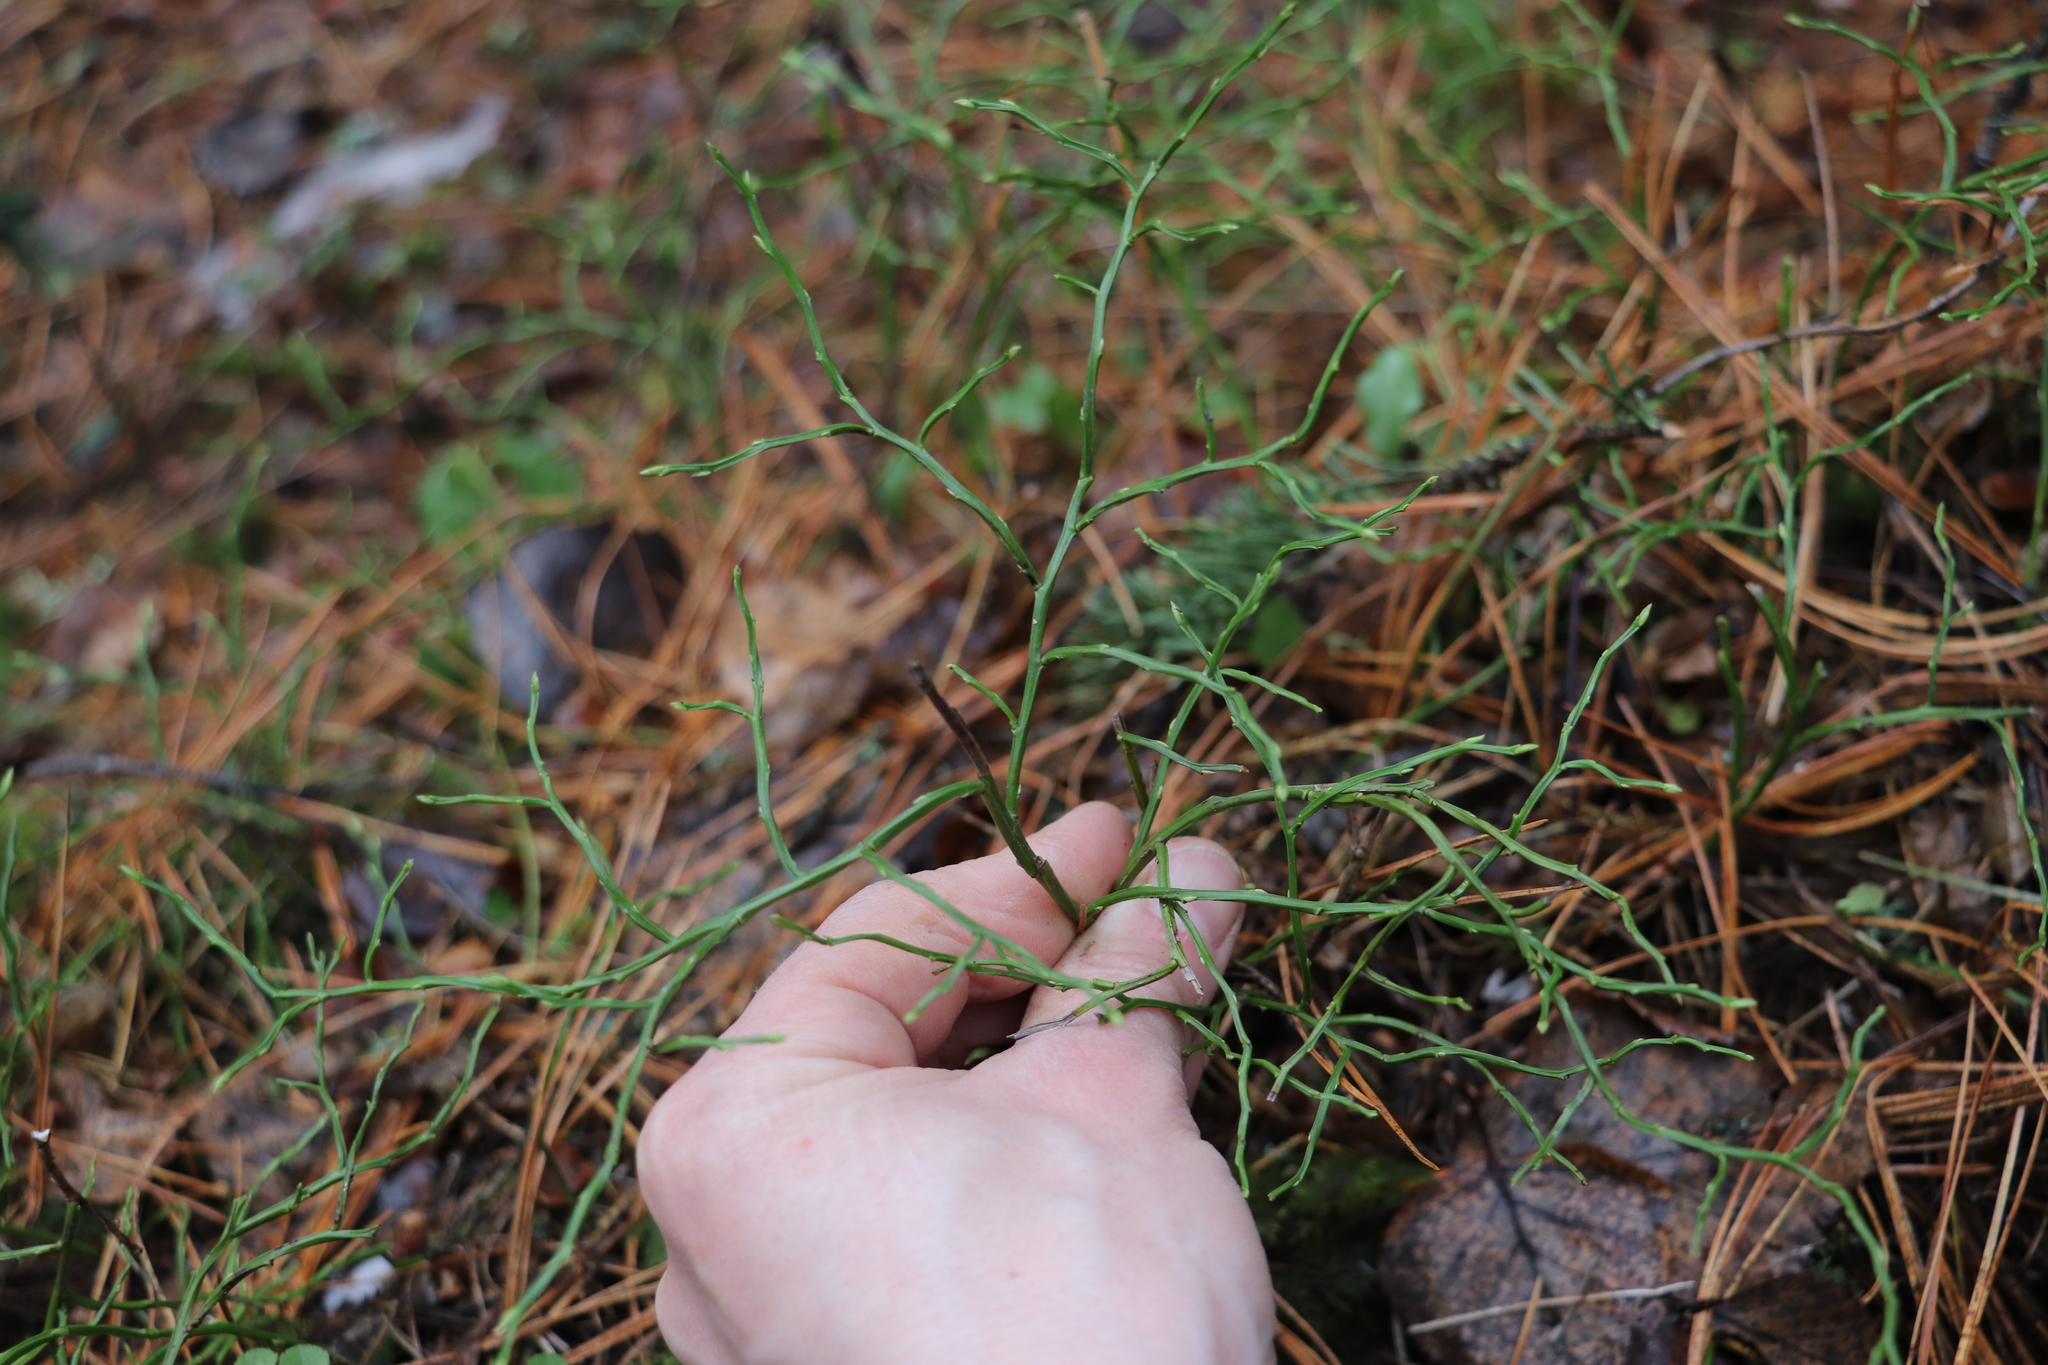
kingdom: Plantae
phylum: Tracheophyta
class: Magnoliopsida
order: Ericales
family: Ericaceae
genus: Vaccinium
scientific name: Vaccinium myrtillus
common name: Bilberry
